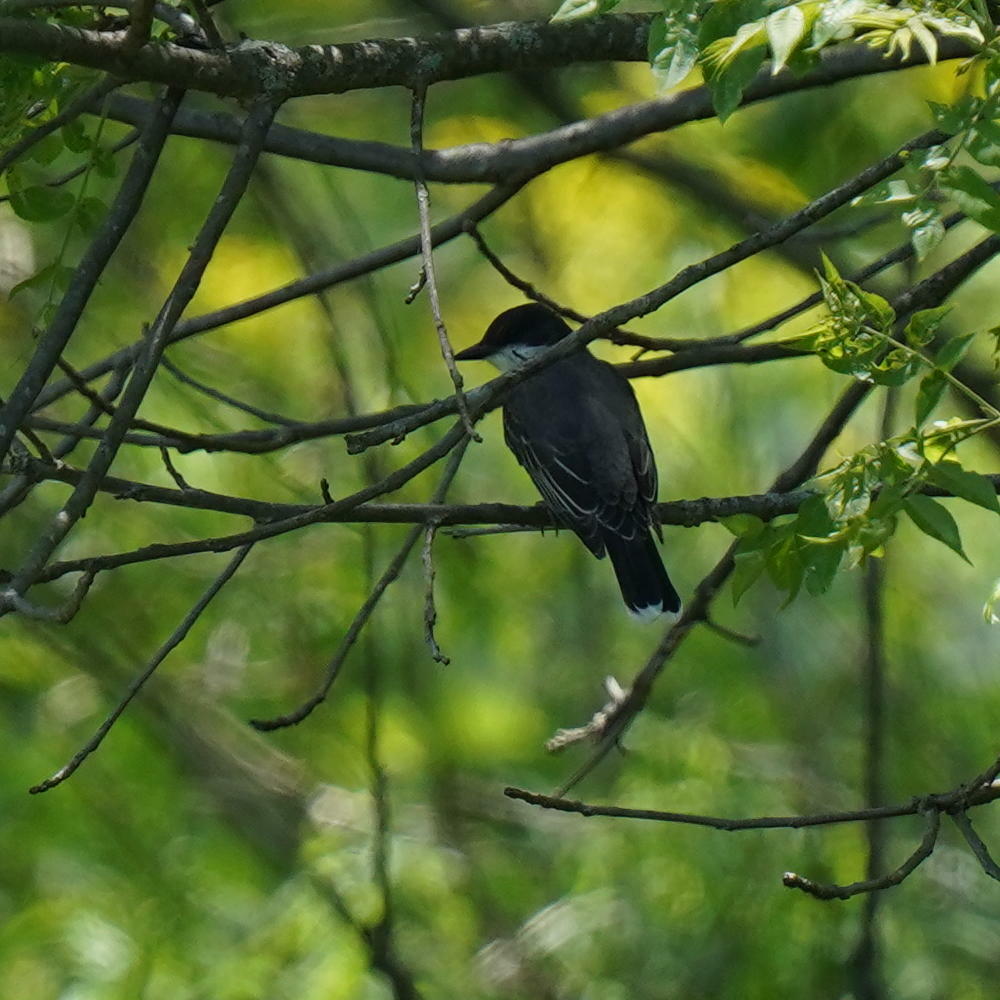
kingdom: Animalia
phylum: Chordata
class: Aves
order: Passeriformes
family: Tyrannidae
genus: Tyrannus
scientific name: Tyrannus tyrannus
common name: Eastern kingbird
